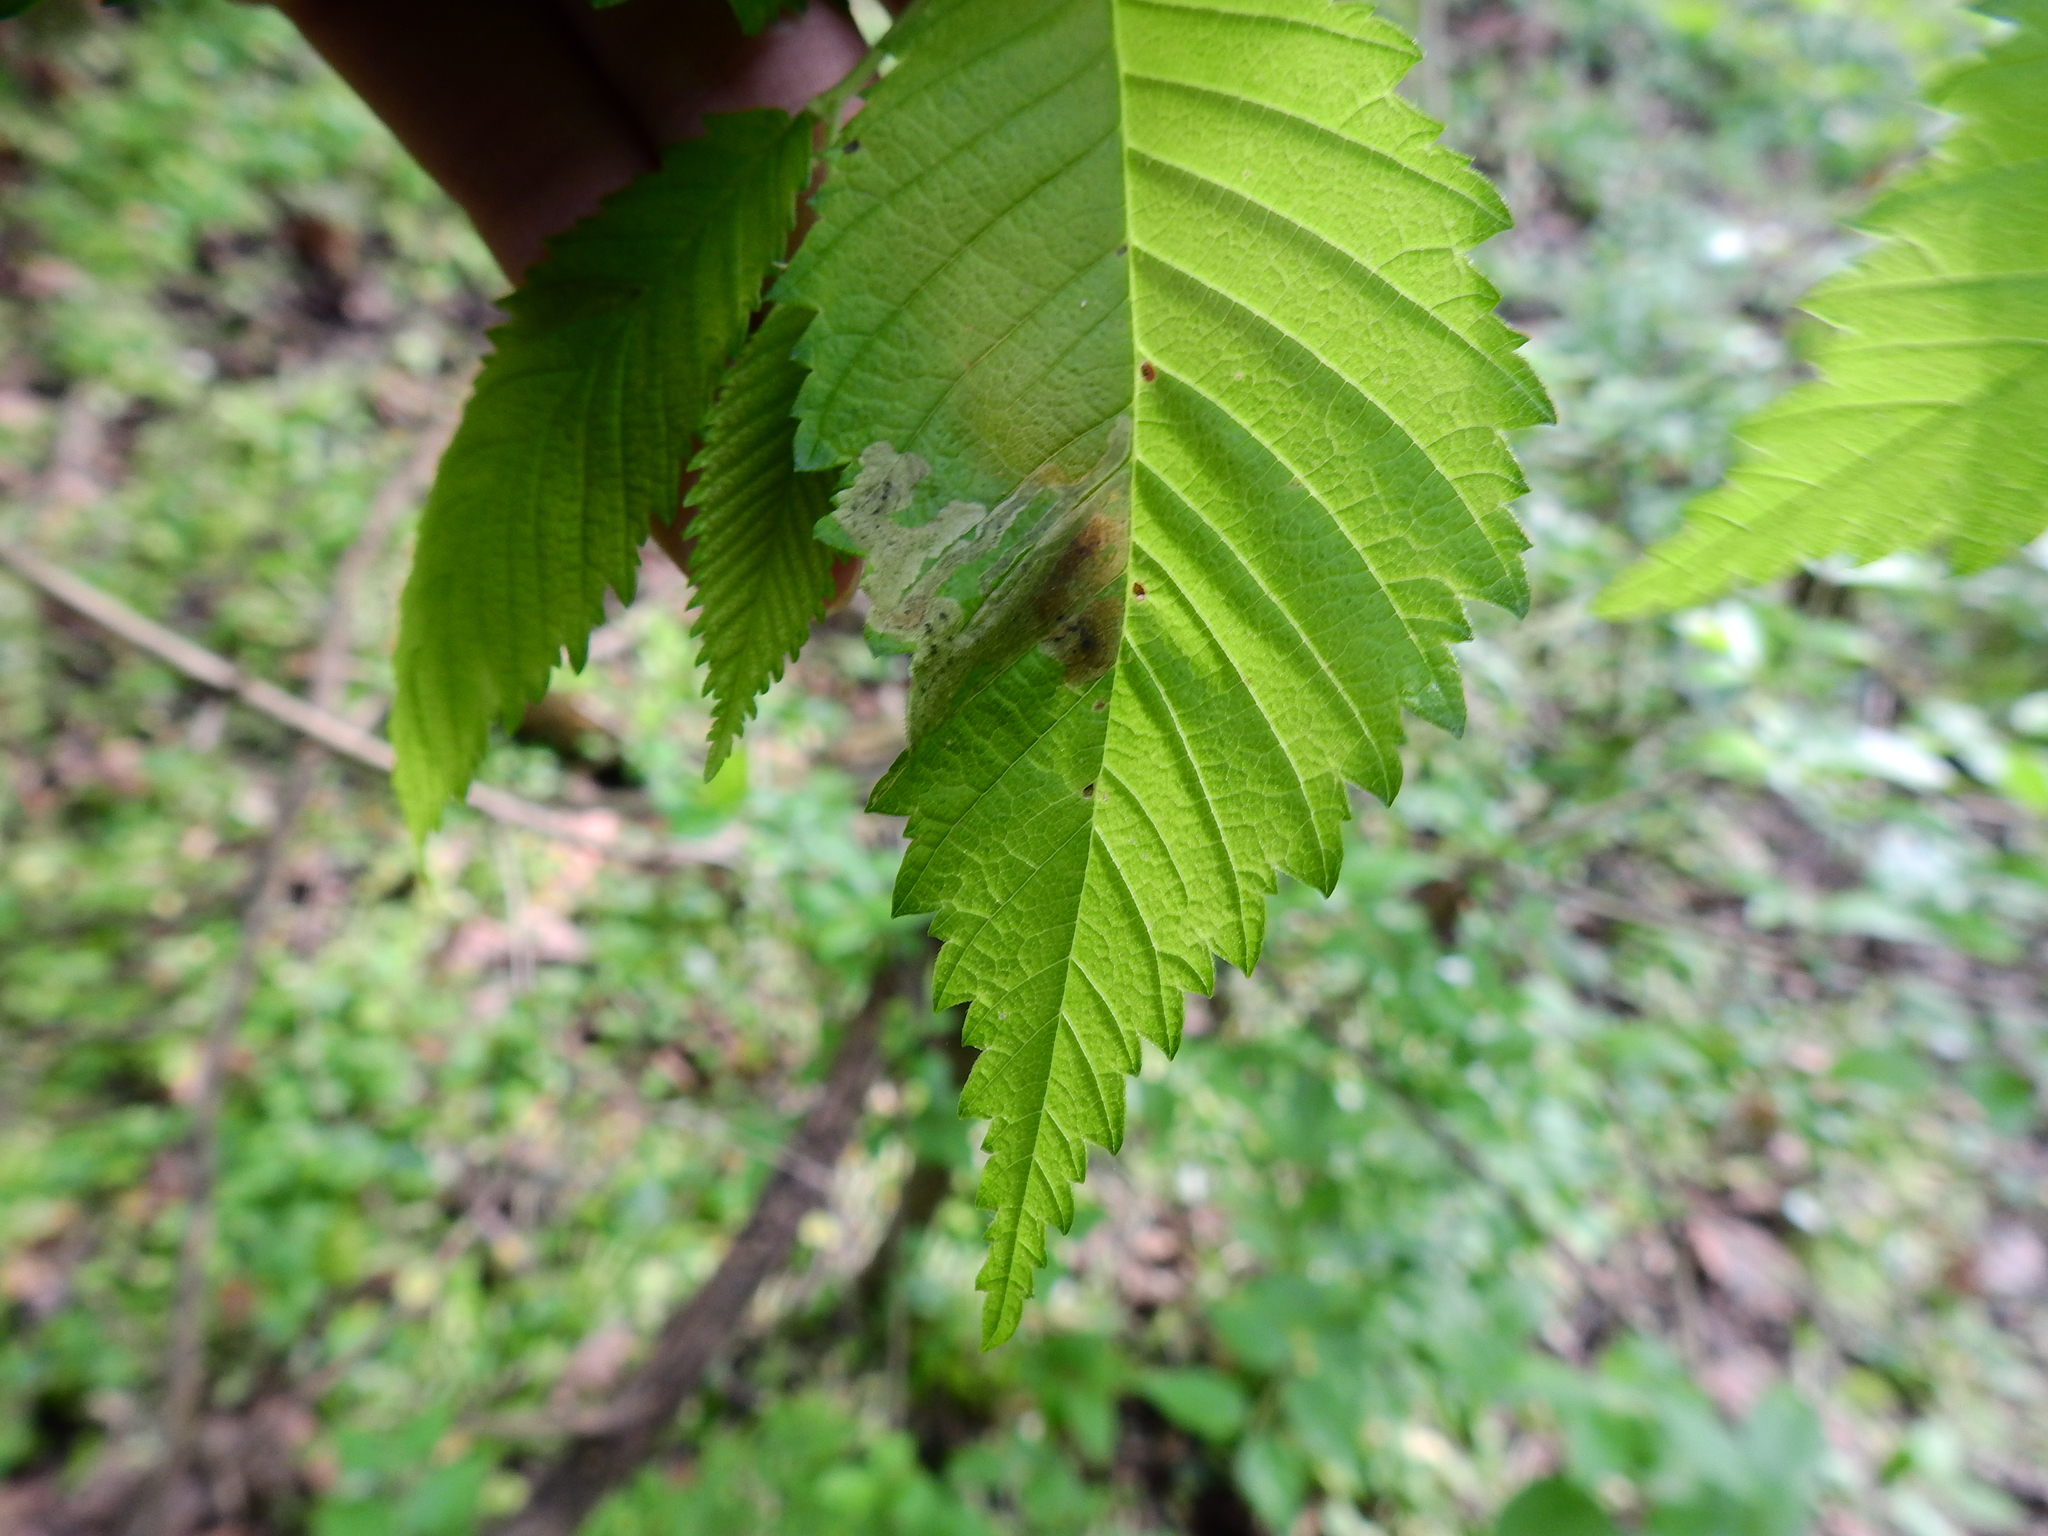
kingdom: Animalia
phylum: Arthropoda
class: Insecta
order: Diptera
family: Agromyzidae
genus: Agromyza
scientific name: Agromyza aristata
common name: Elm agromyzid leafminer
